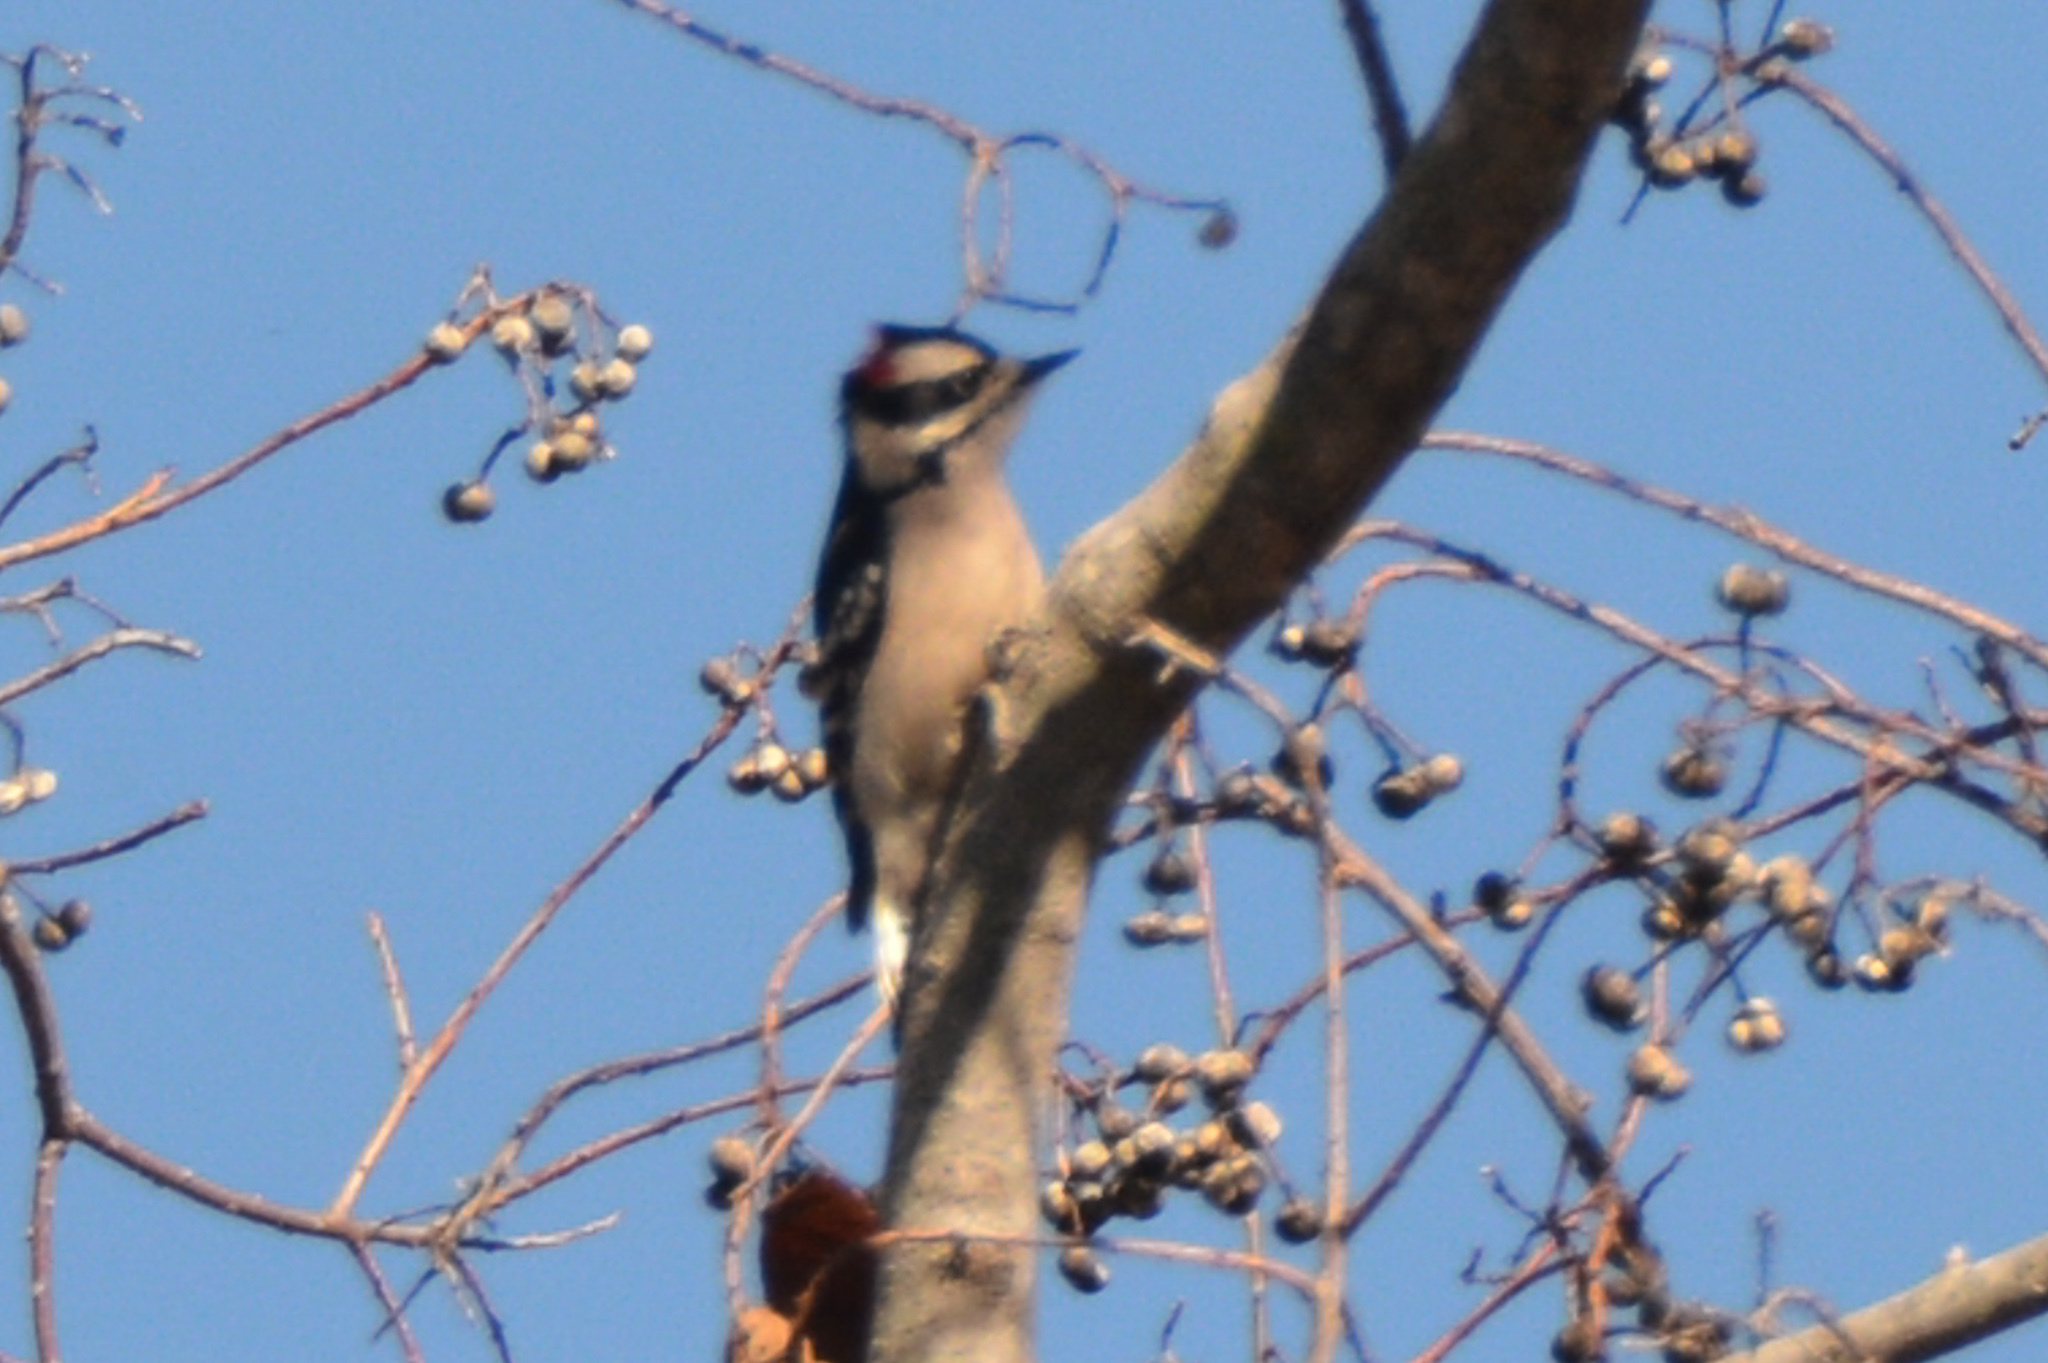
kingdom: Animalia
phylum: Chordata
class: Aves
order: Piciformes
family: Picidae
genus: Dryobates
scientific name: Dryobates pubescens
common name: Downy woodpecker
